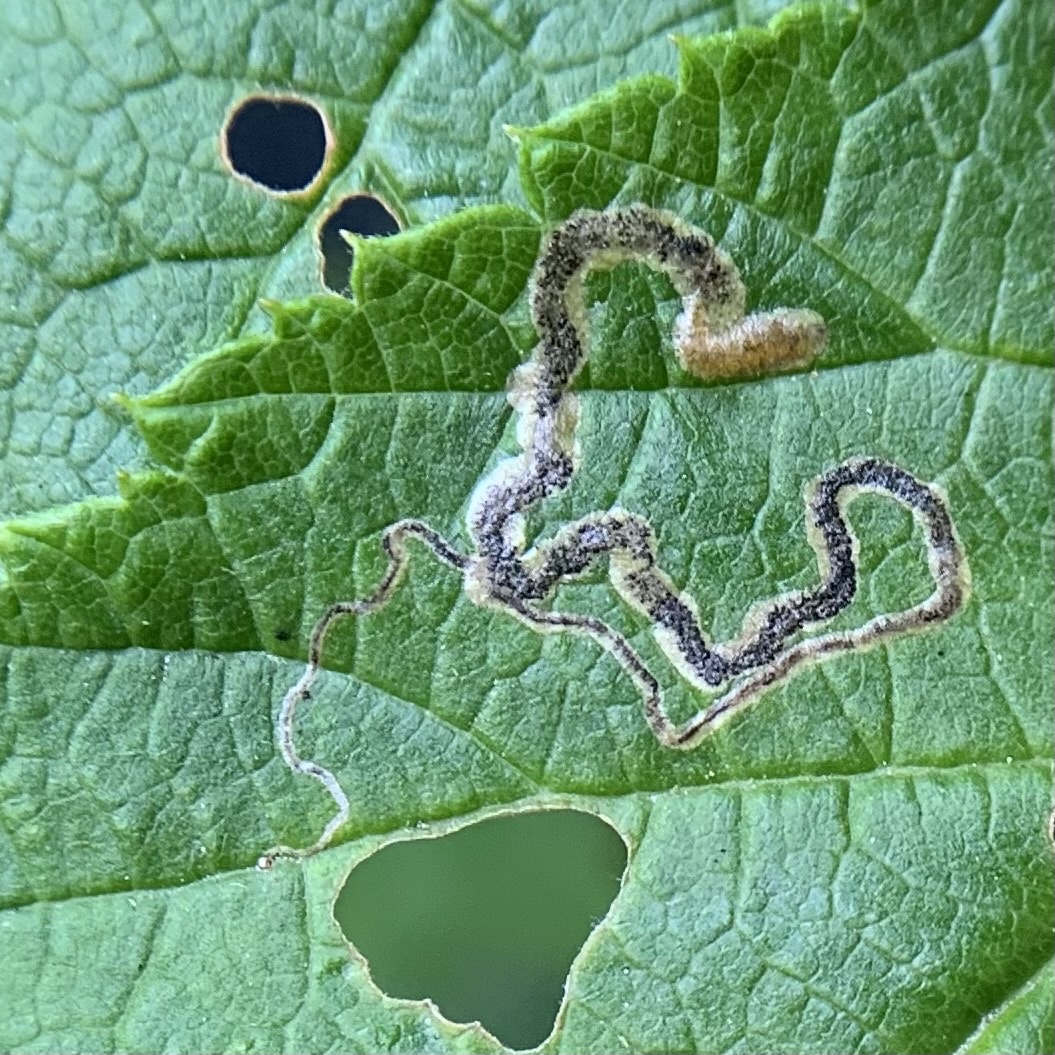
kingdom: Animalia
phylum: Arthropoda
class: Insecta
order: Lepidoptera
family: Nepticulidae
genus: Stigmella
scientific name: Stigmella aurella
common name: Golden pigmy
